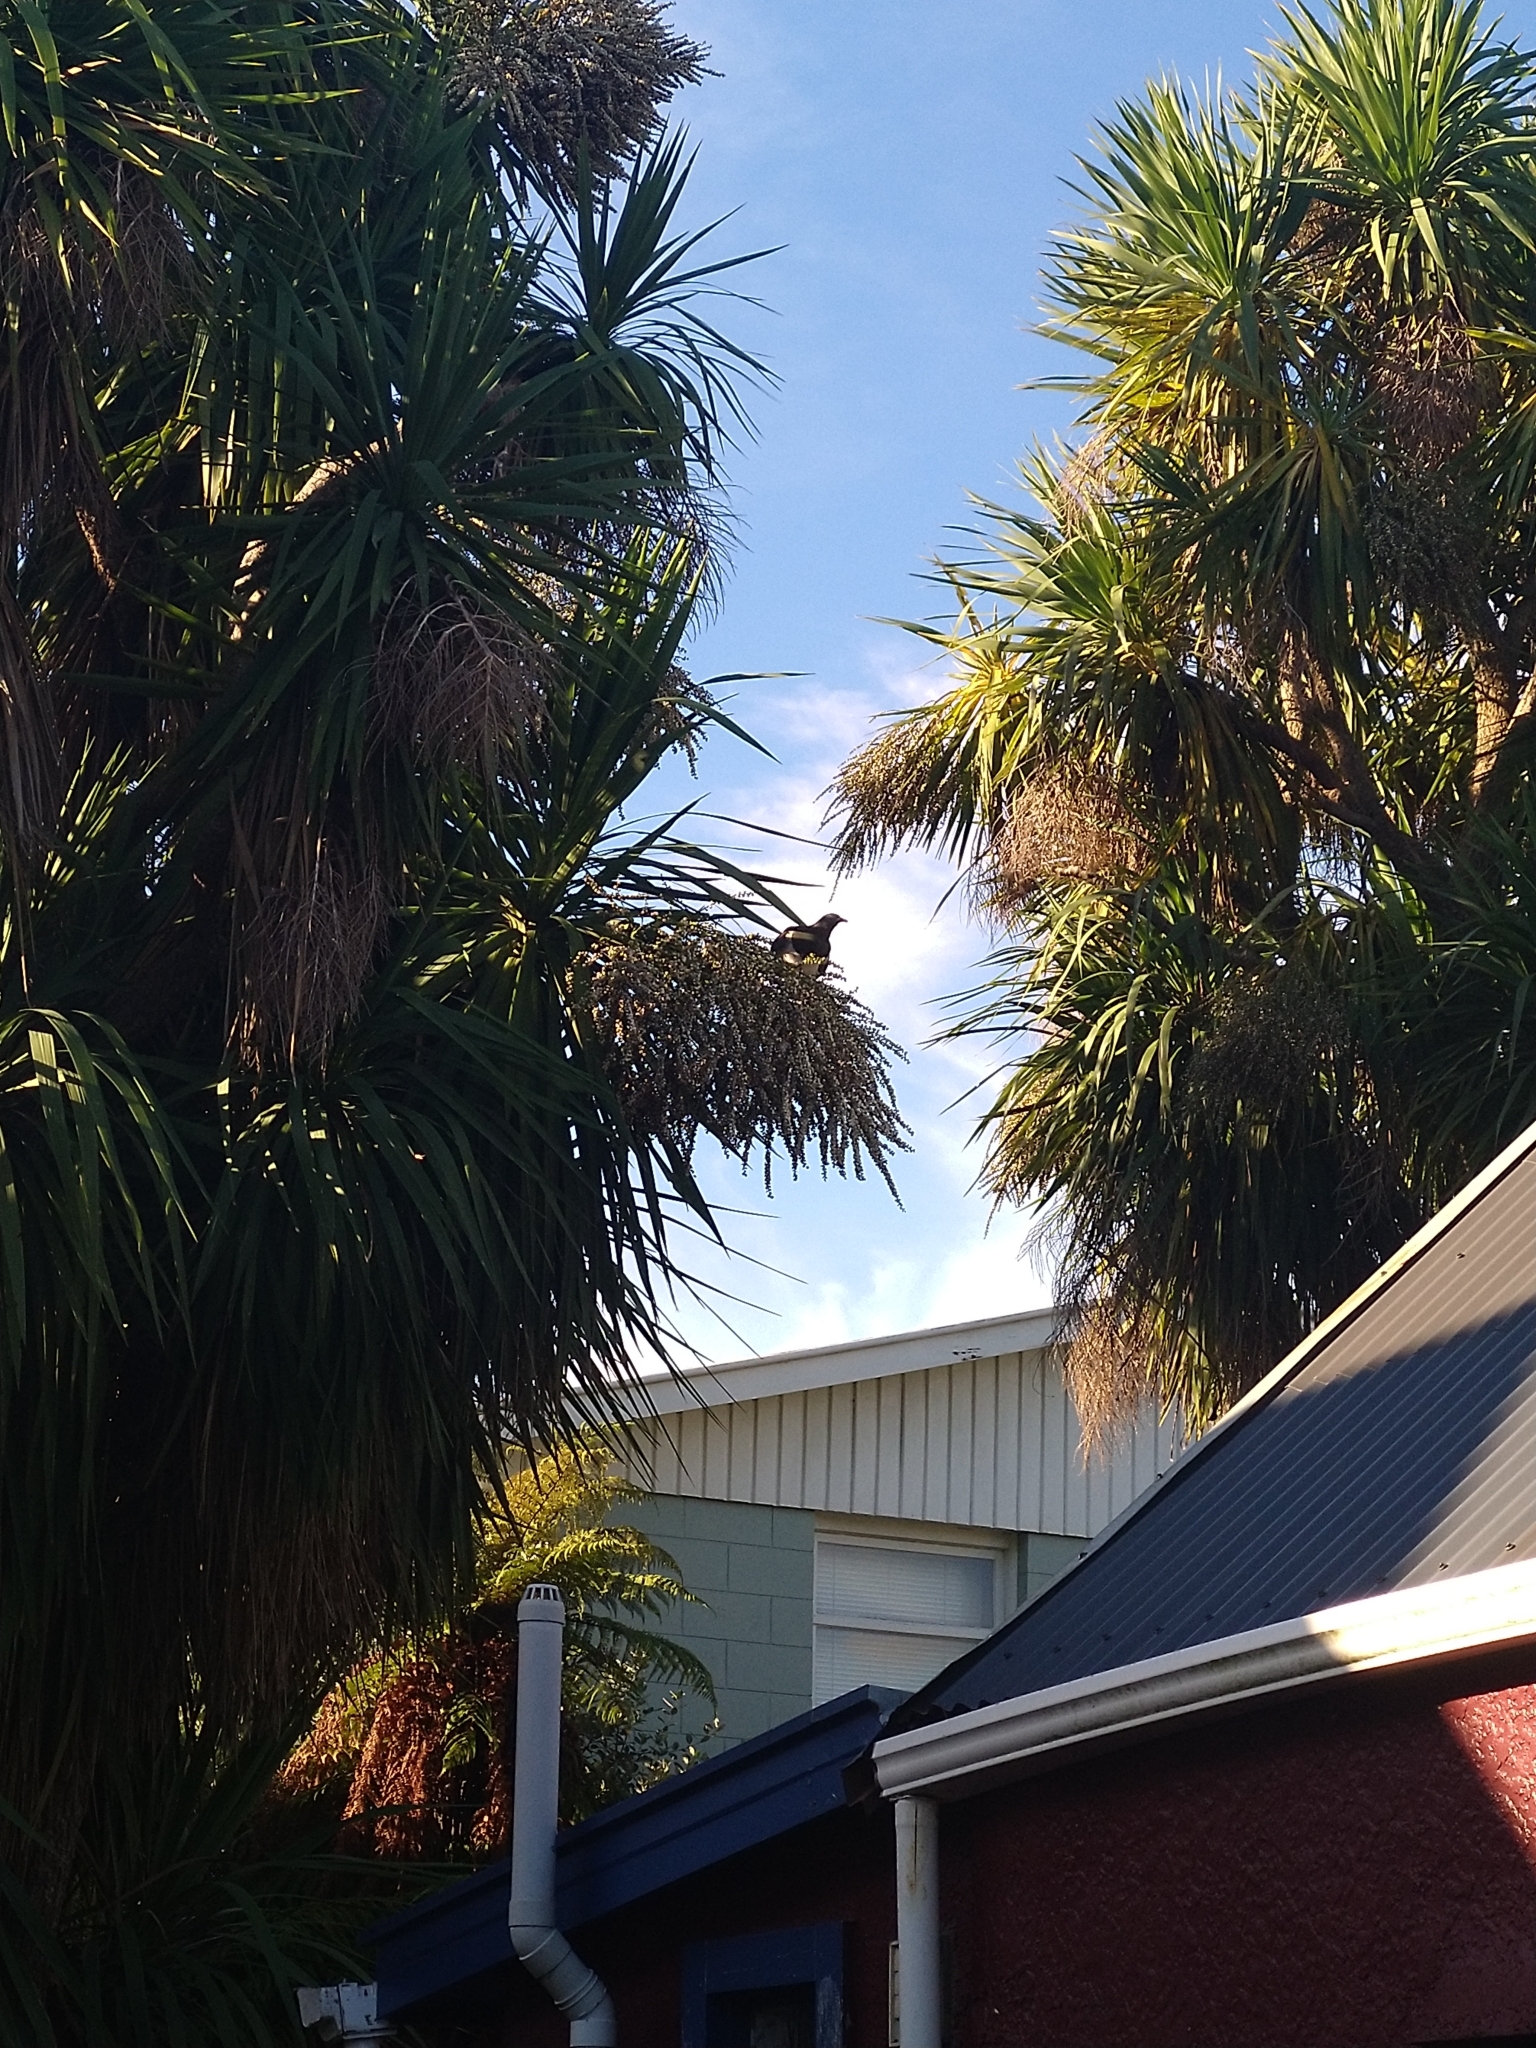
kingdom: Animalia
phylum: Chordata
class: Aves
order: Columbiformes
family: Columbidae
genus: Hemiphaga
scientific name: Hemiphaga novaeseelandiae
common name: New zealand pigeon
